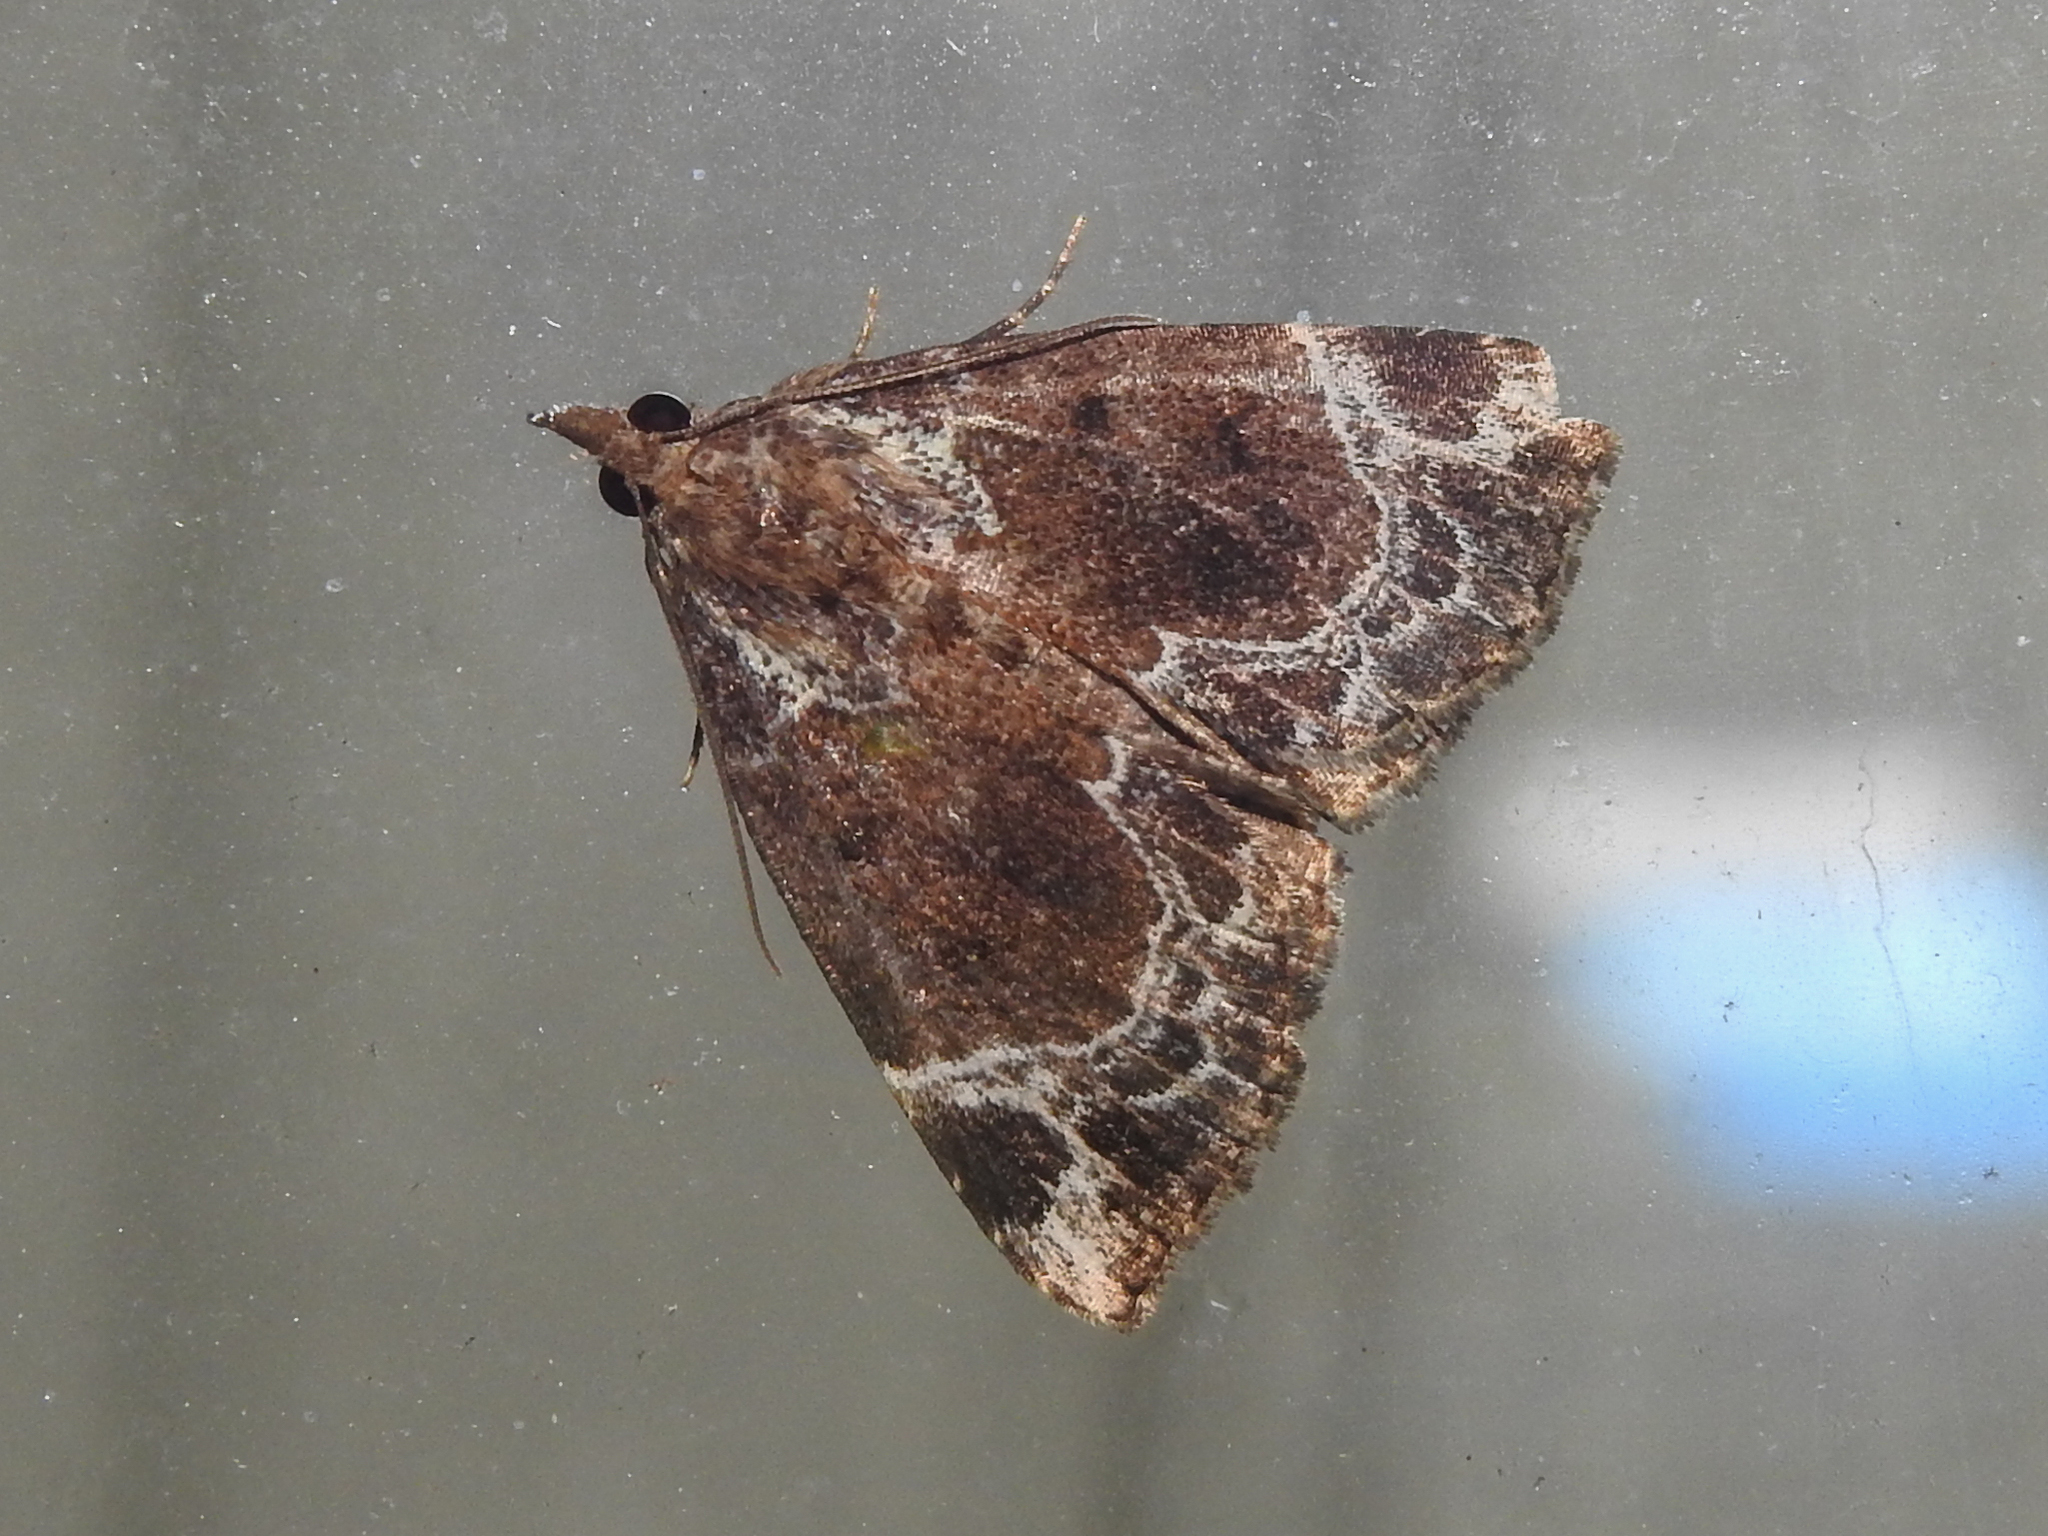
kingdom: Animalia
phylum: Arthropoda
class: Insecta
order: Lepidoptera
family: Erebidae
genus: Hypena
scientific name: Hypena abalienalis
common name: White-lined snout
